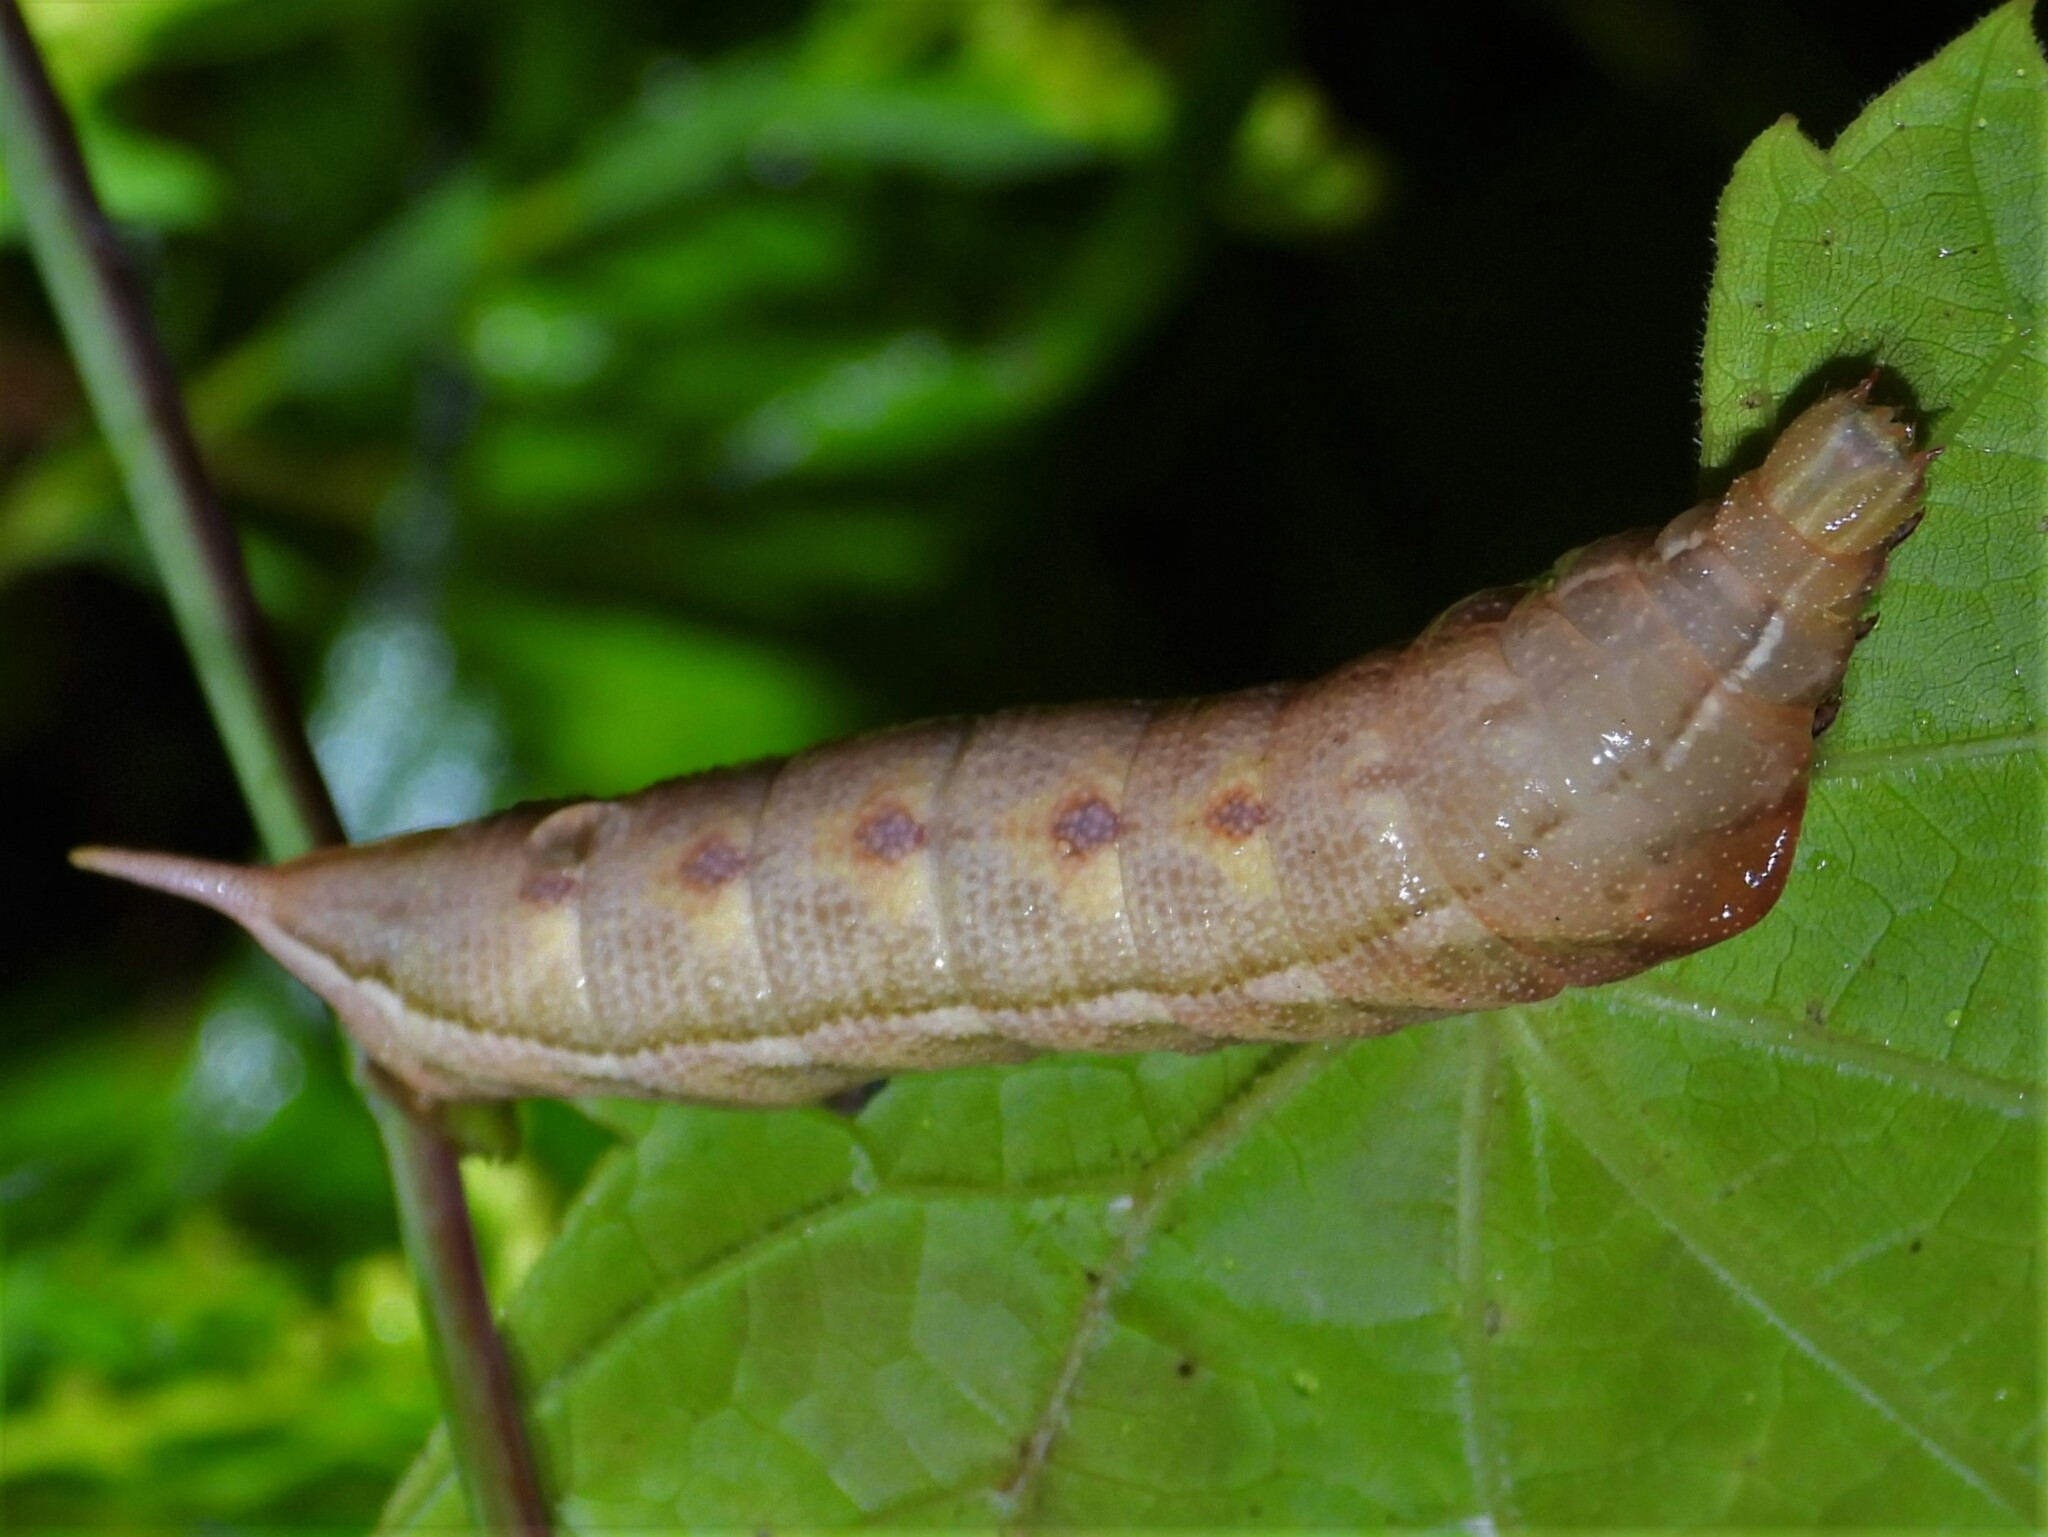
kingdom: Animalia
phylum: Arthropoda
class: Insecta
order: Lepidoptera
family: Sphingidae
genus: Darapsa
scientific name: Darapsa myron
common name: Hog sphinx
